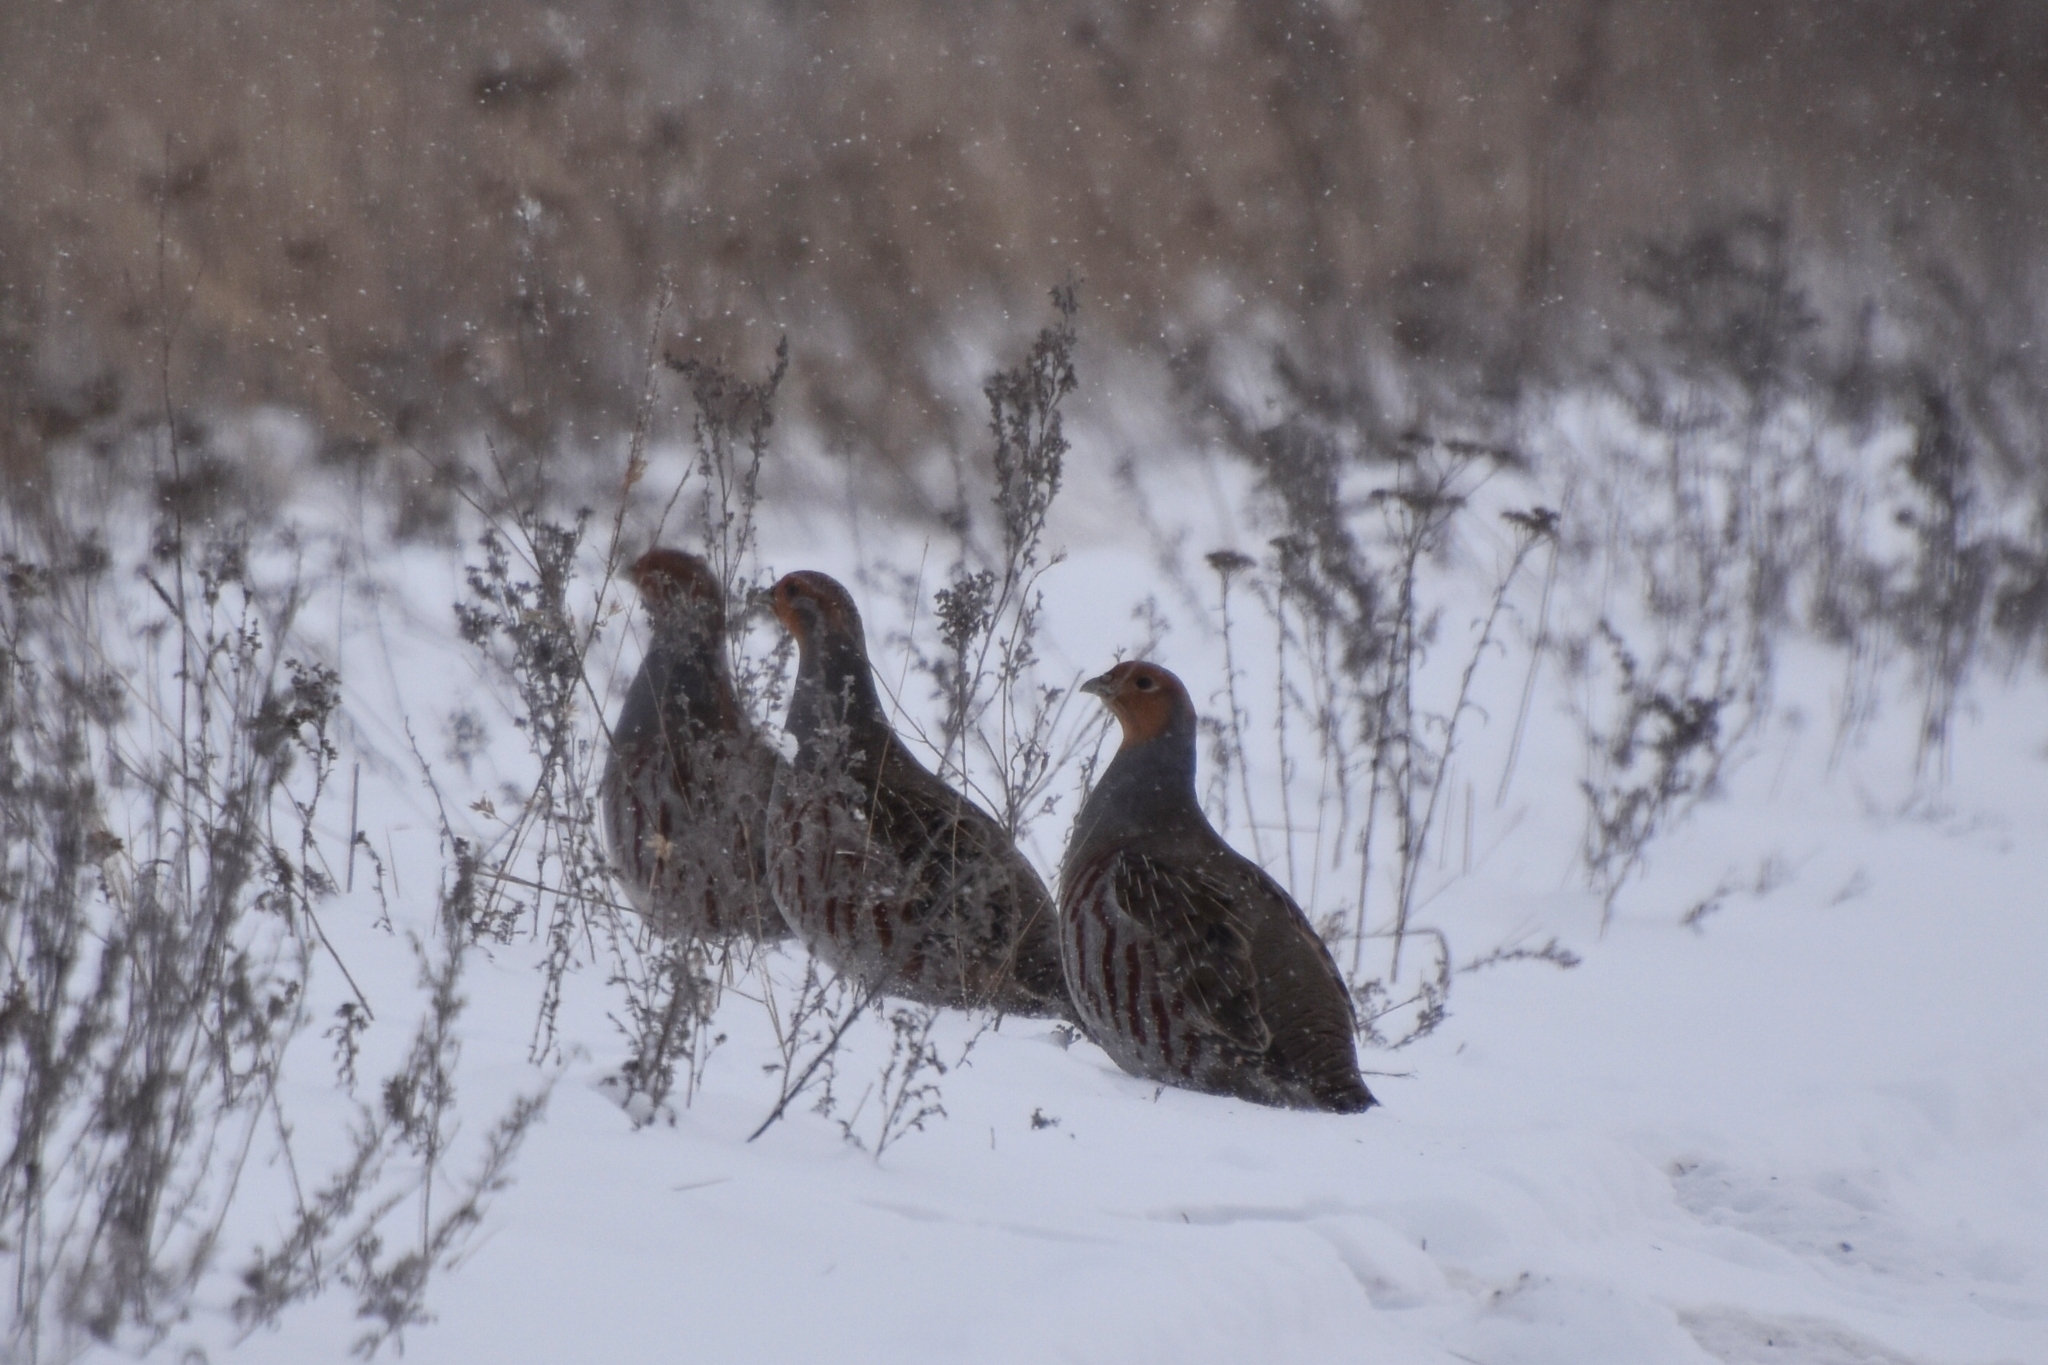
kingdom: Animalia
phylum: Chordata
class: Aves
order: Galliformes
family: Phasianidae
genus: Perdix
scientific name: Perdix perdix
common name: Grey partridge
